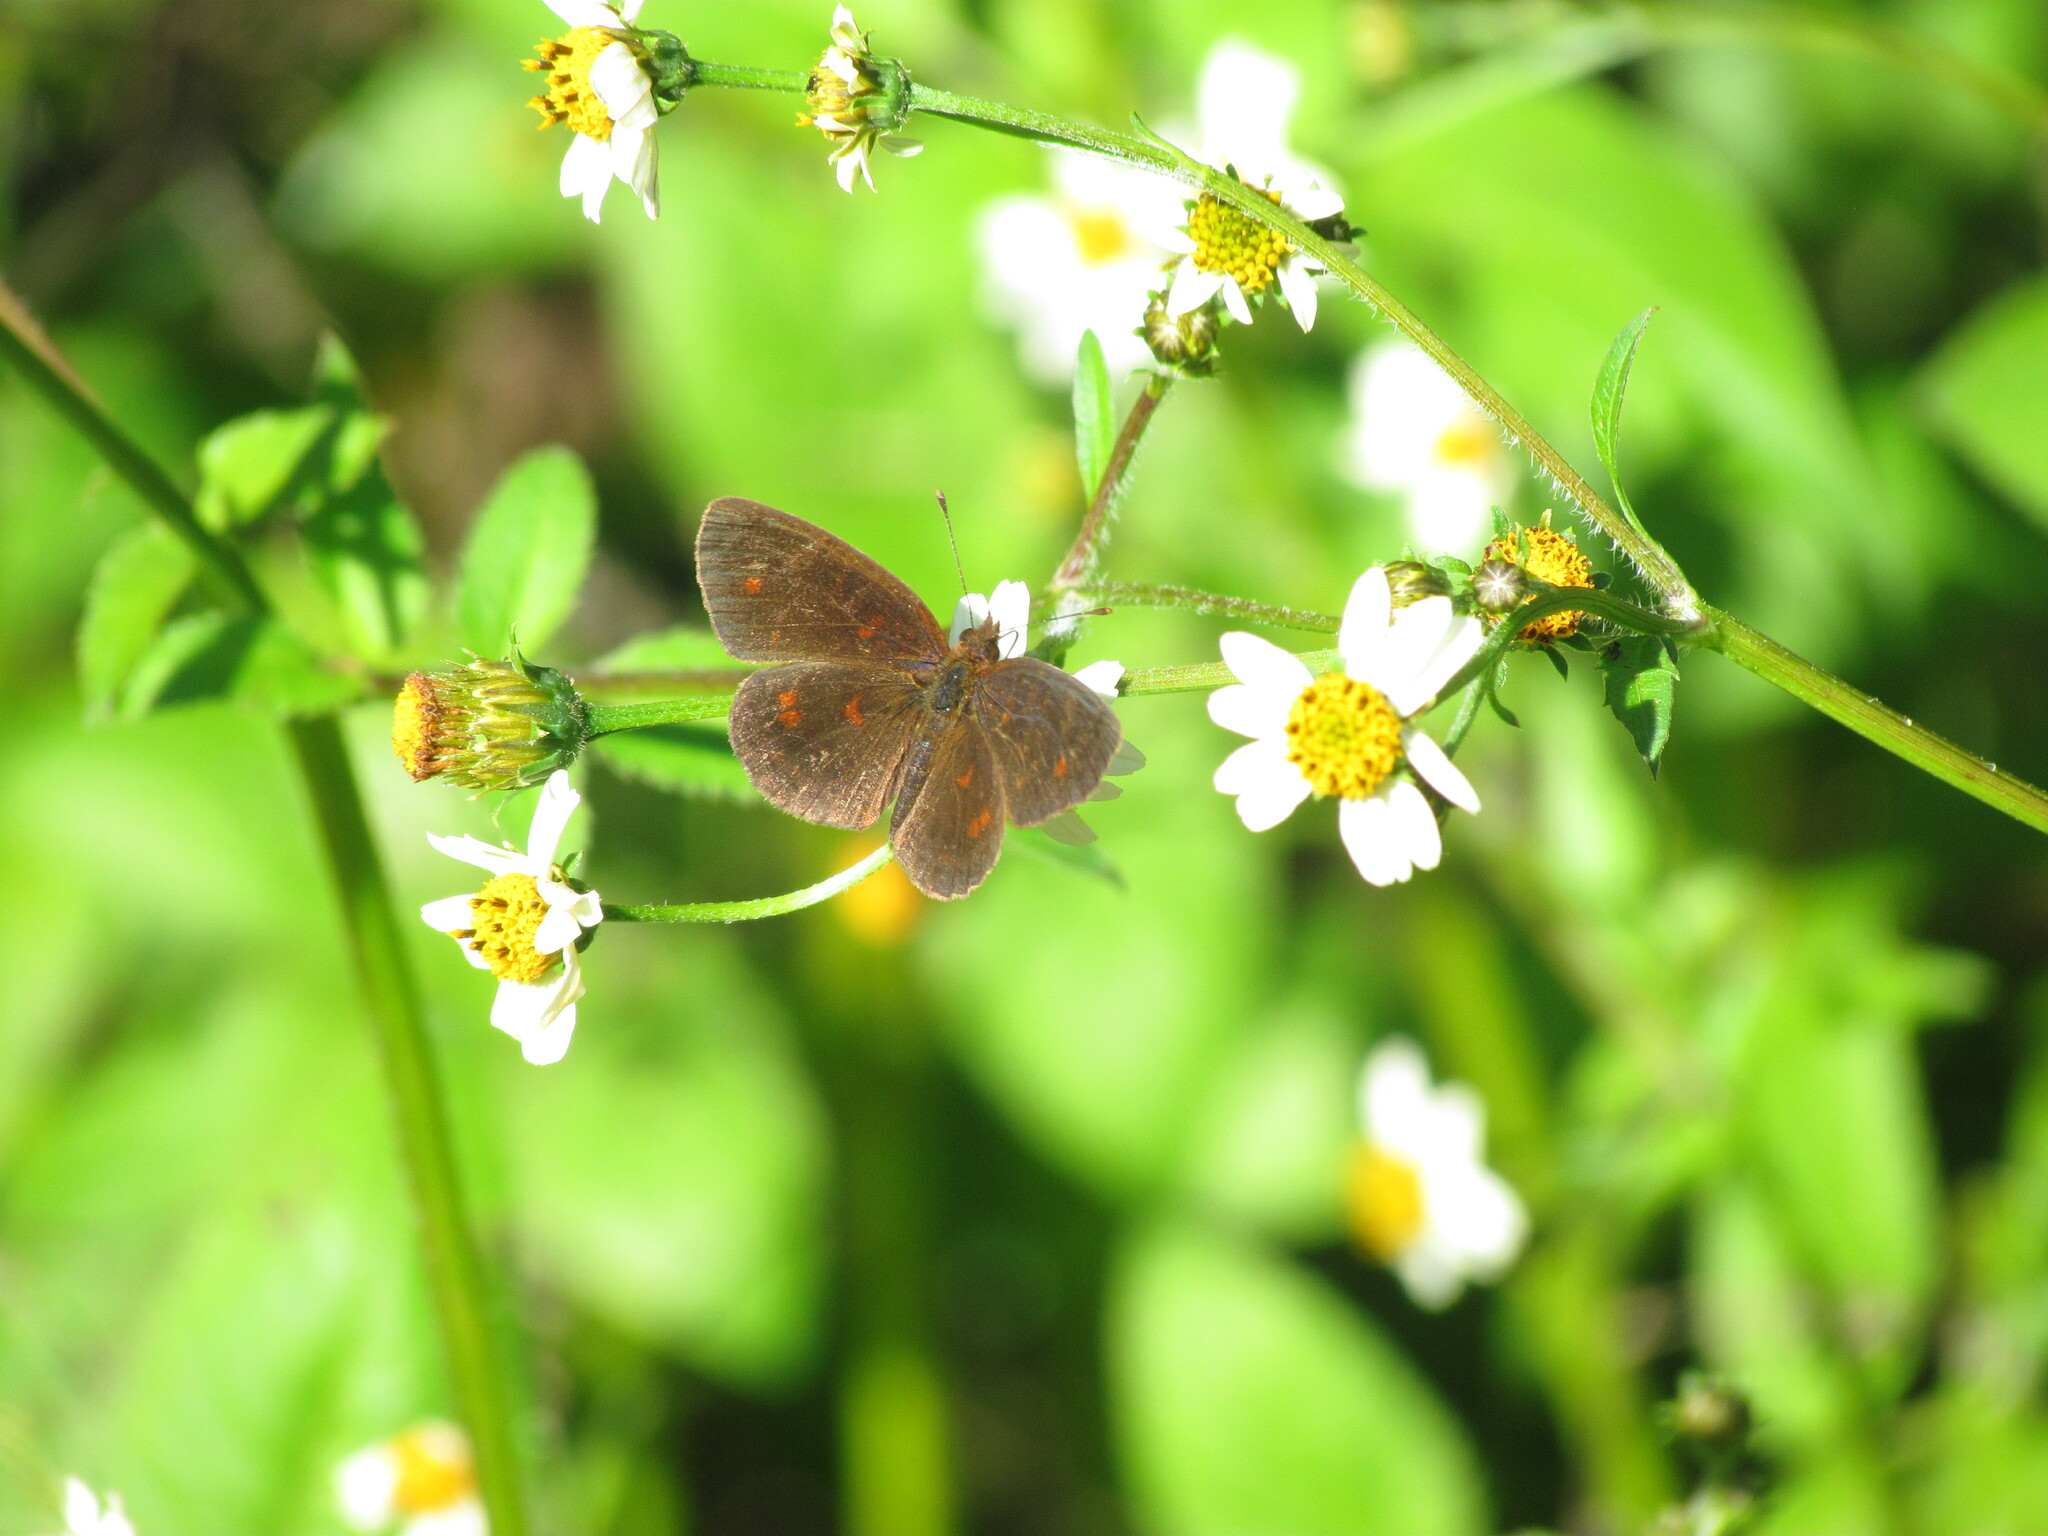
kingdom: Animalia
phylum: Arthropoda
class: Insecta
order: Lepidoptera
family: Nymphalidae
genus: Ortilia
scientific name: Ortilia velica
